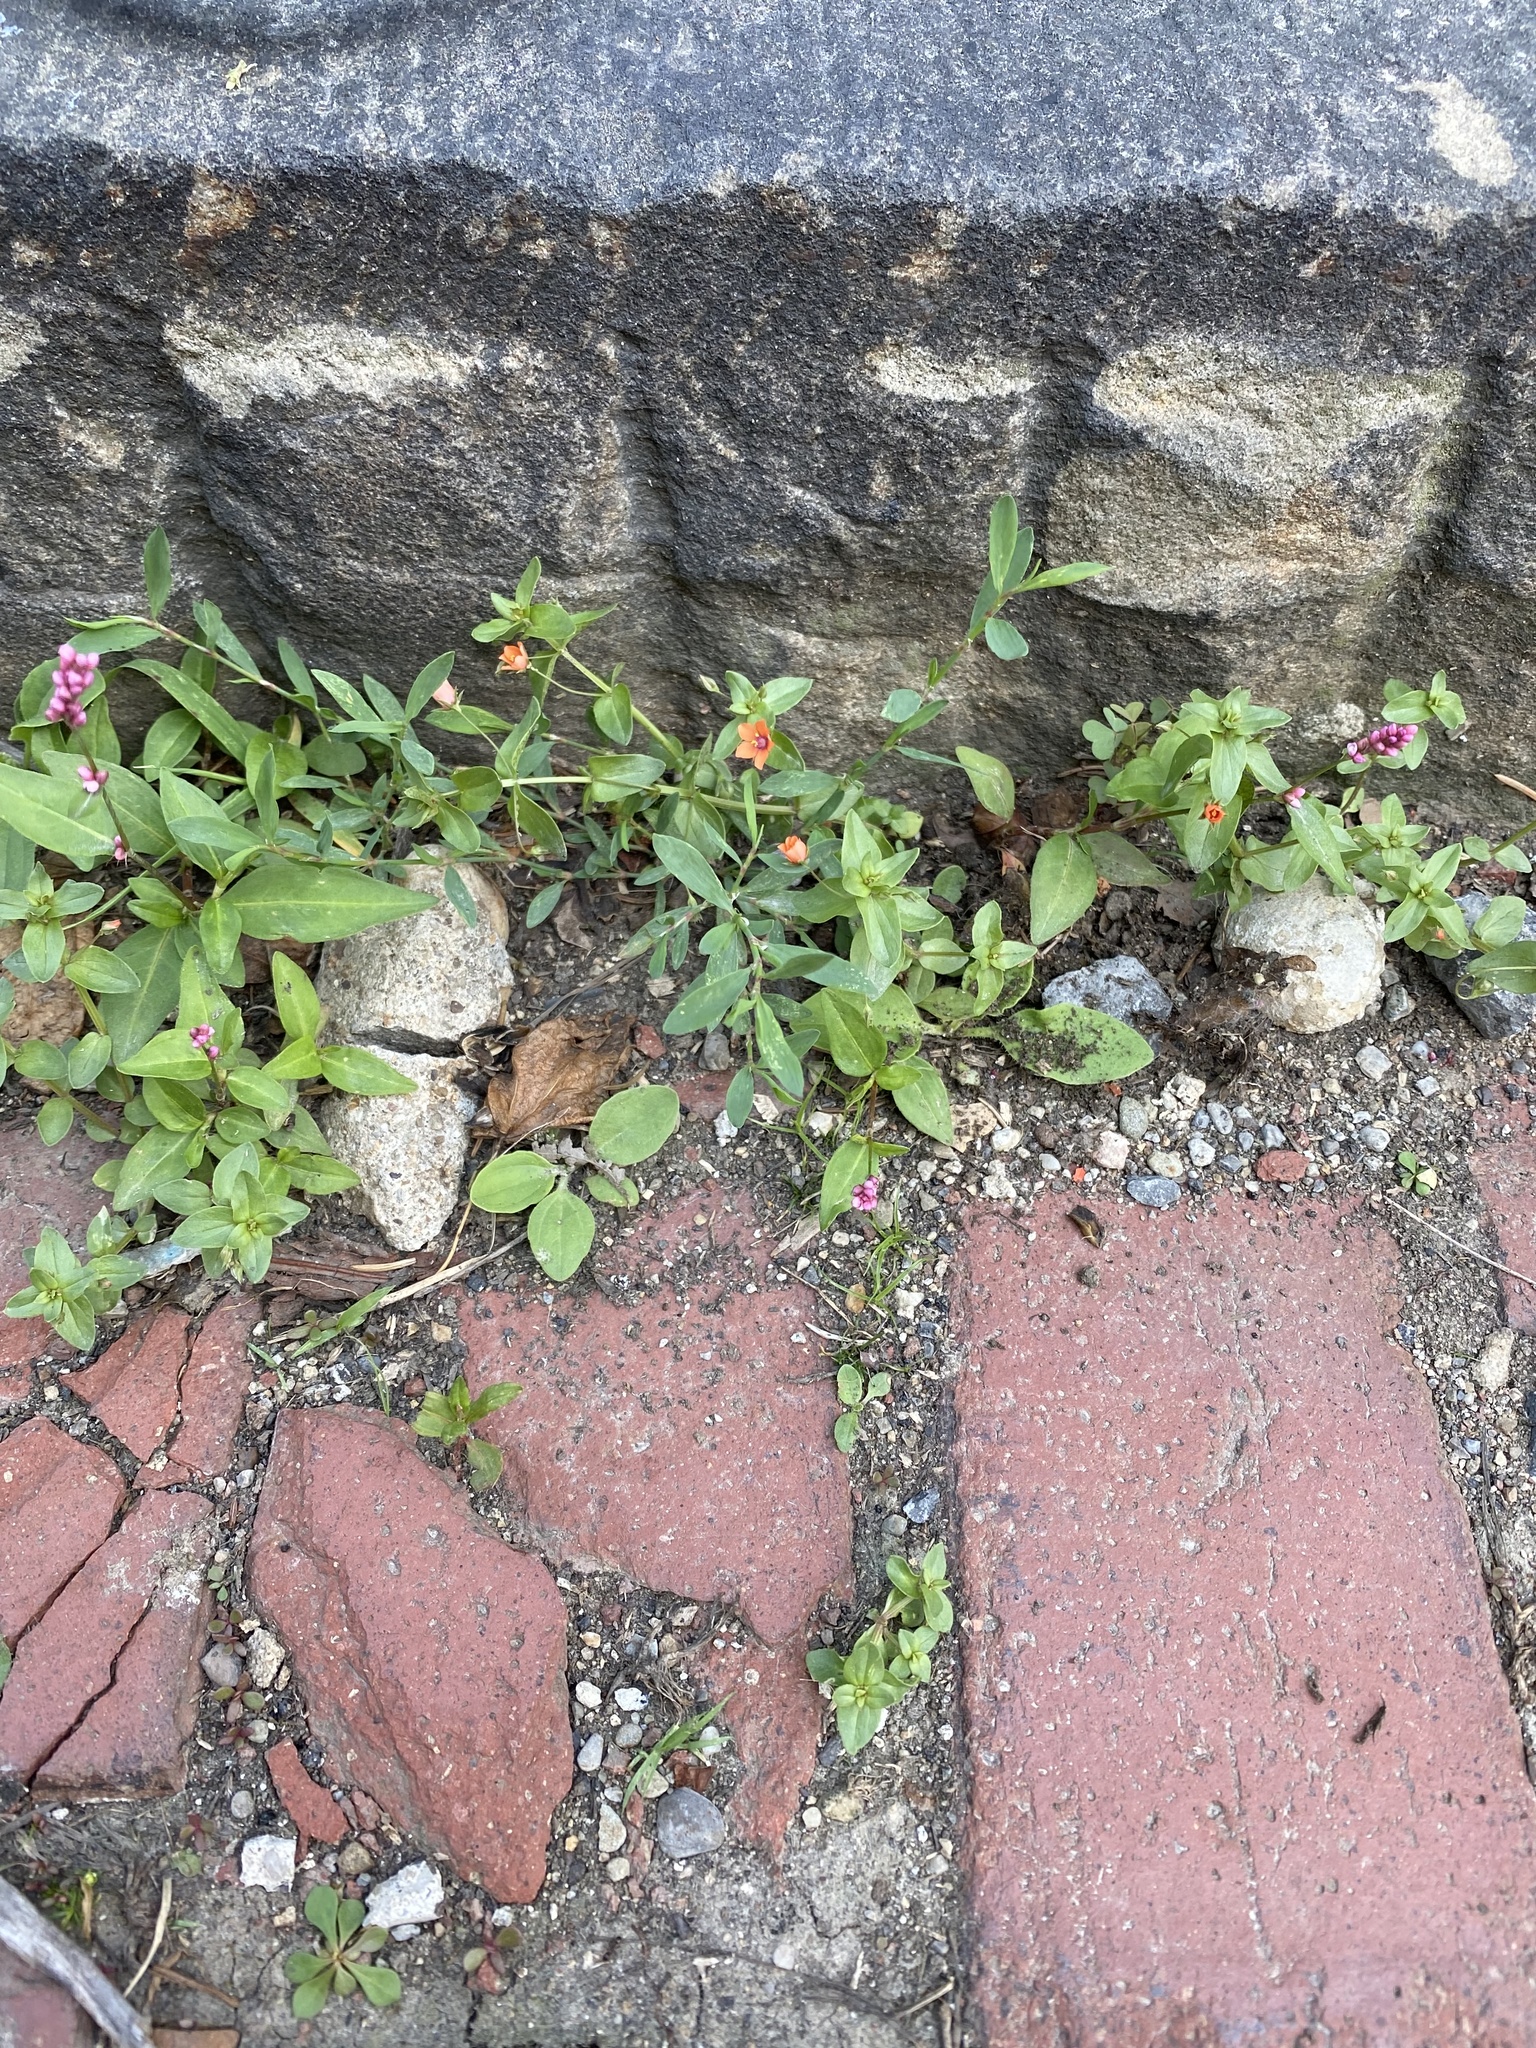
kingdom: Plantae
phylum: Tracheophyta
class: Magnoliopsida
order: Ericales
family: Primulaceae
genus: Lysimachia
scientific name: Lysimachia arvensis
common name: Scarlet pimpernel
